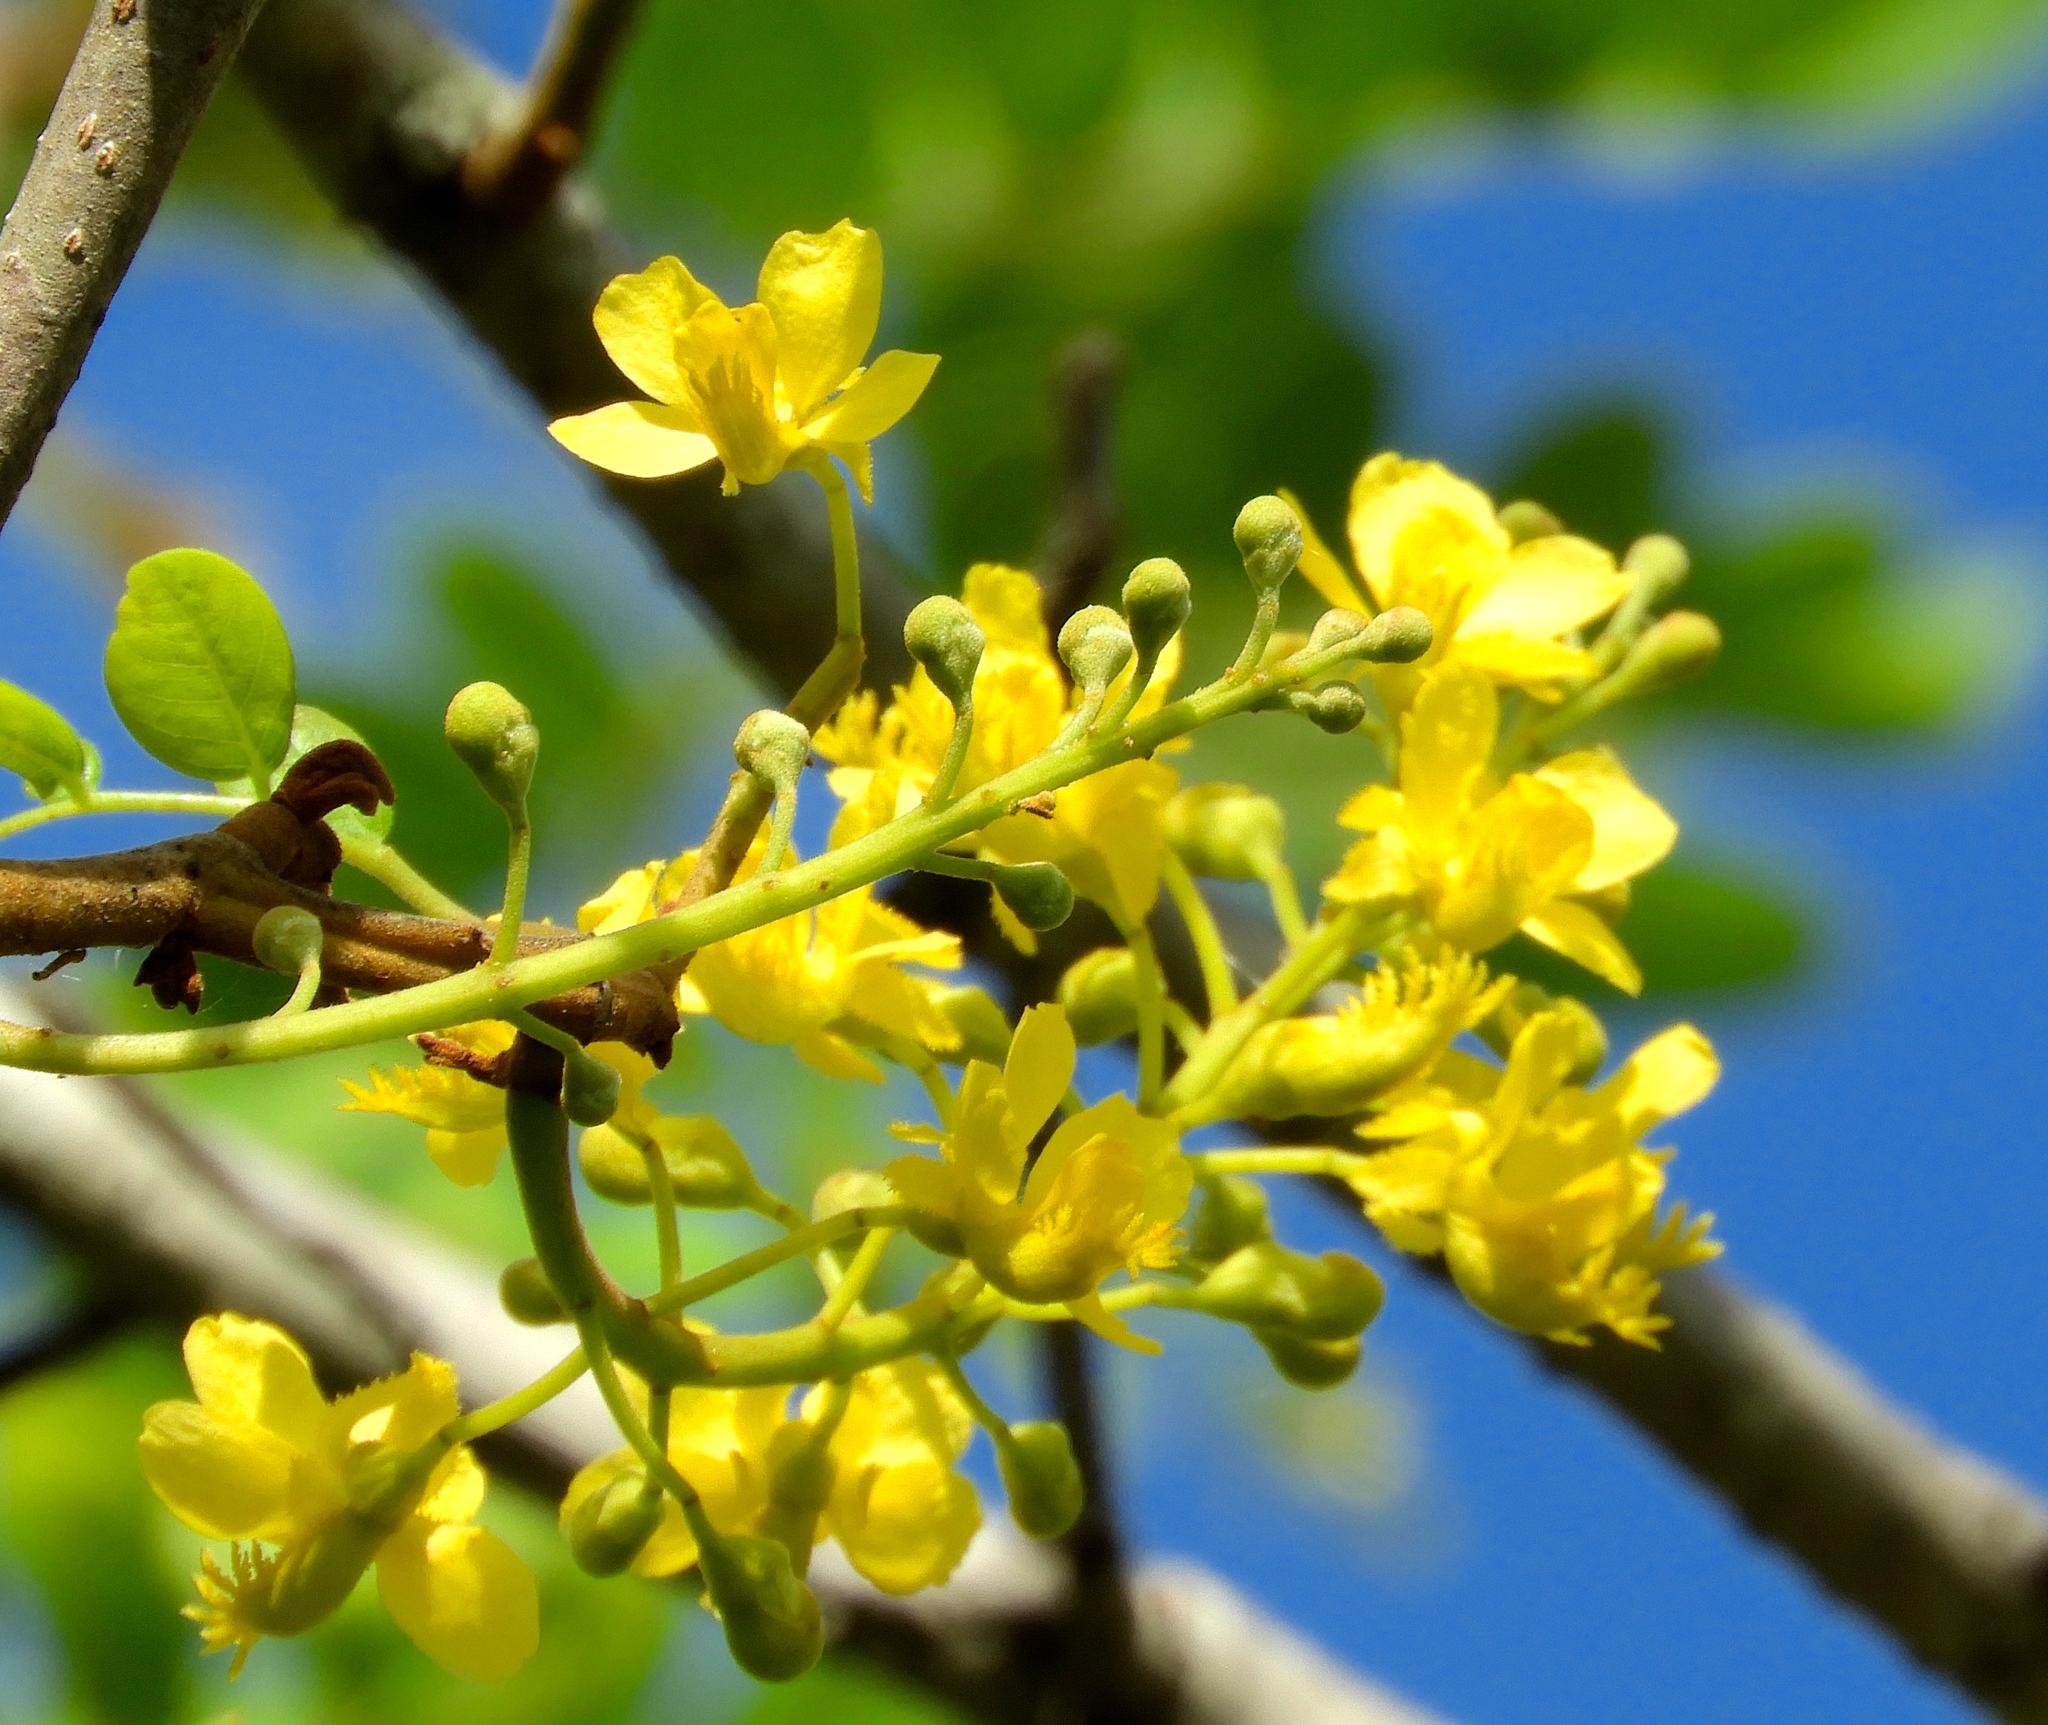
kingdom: Plantae
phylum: Tracheophyta
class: Magnoliopsida
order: Fabales
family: Fabaceae
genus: Coulteria
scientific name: Coulteria platyloba
